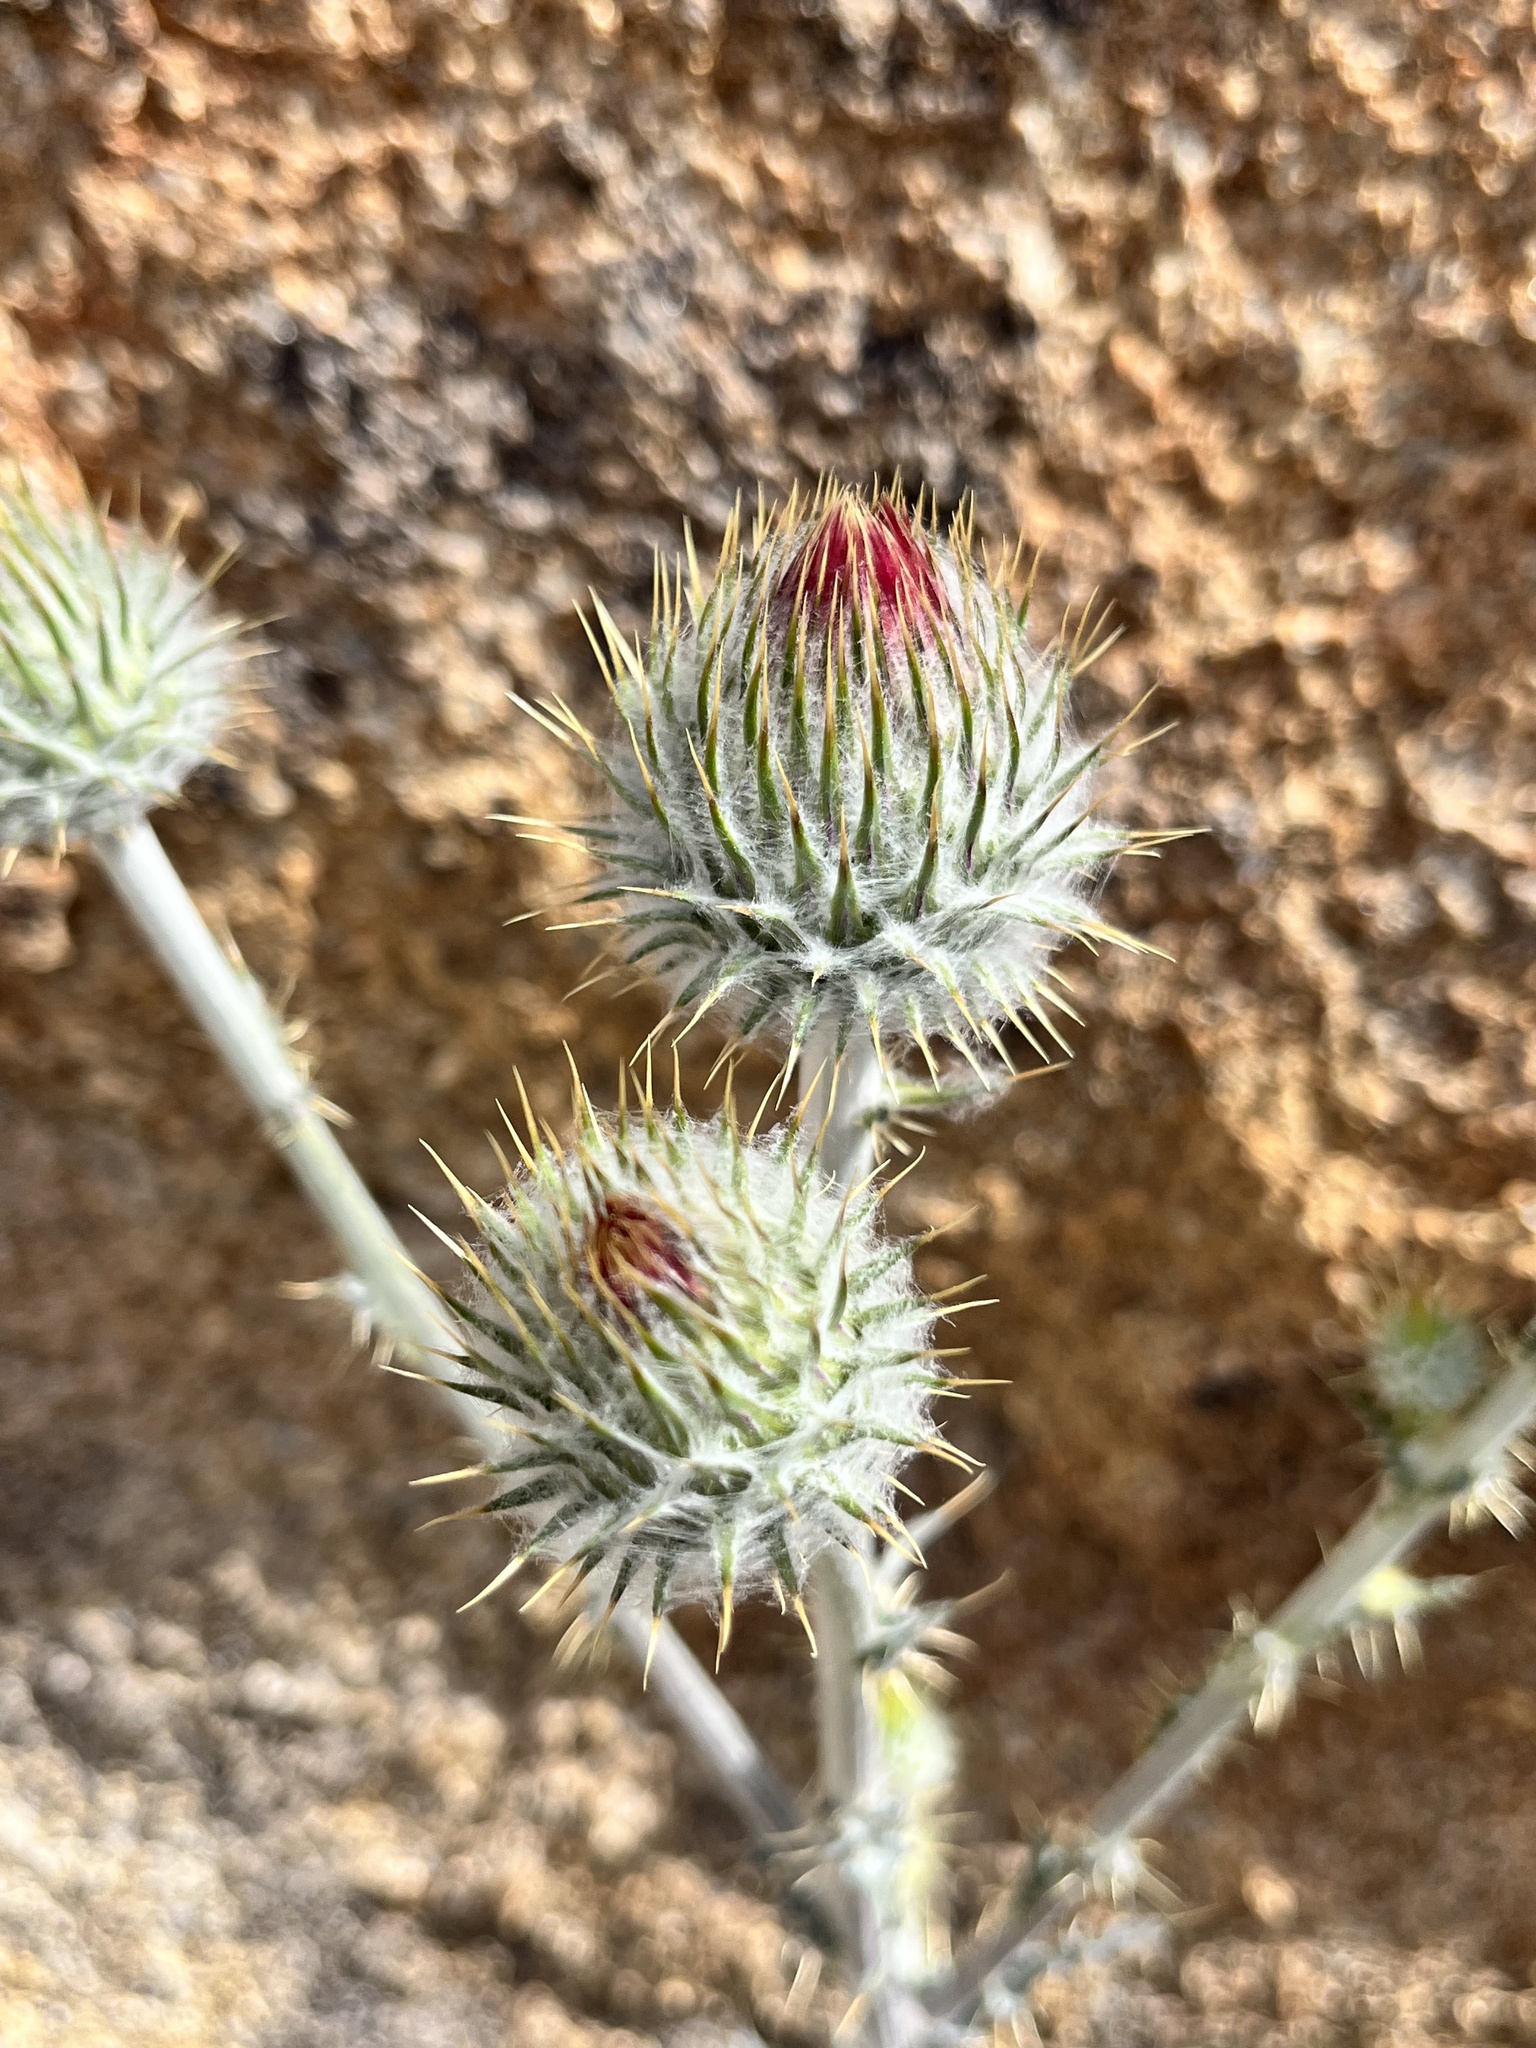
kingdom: Plantae
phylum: Tracheophyta
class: Magnoliopsida
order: Asterales
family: Asteraceae
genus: Cirsium
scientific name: Cirsium occidentale
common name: Western thistle
